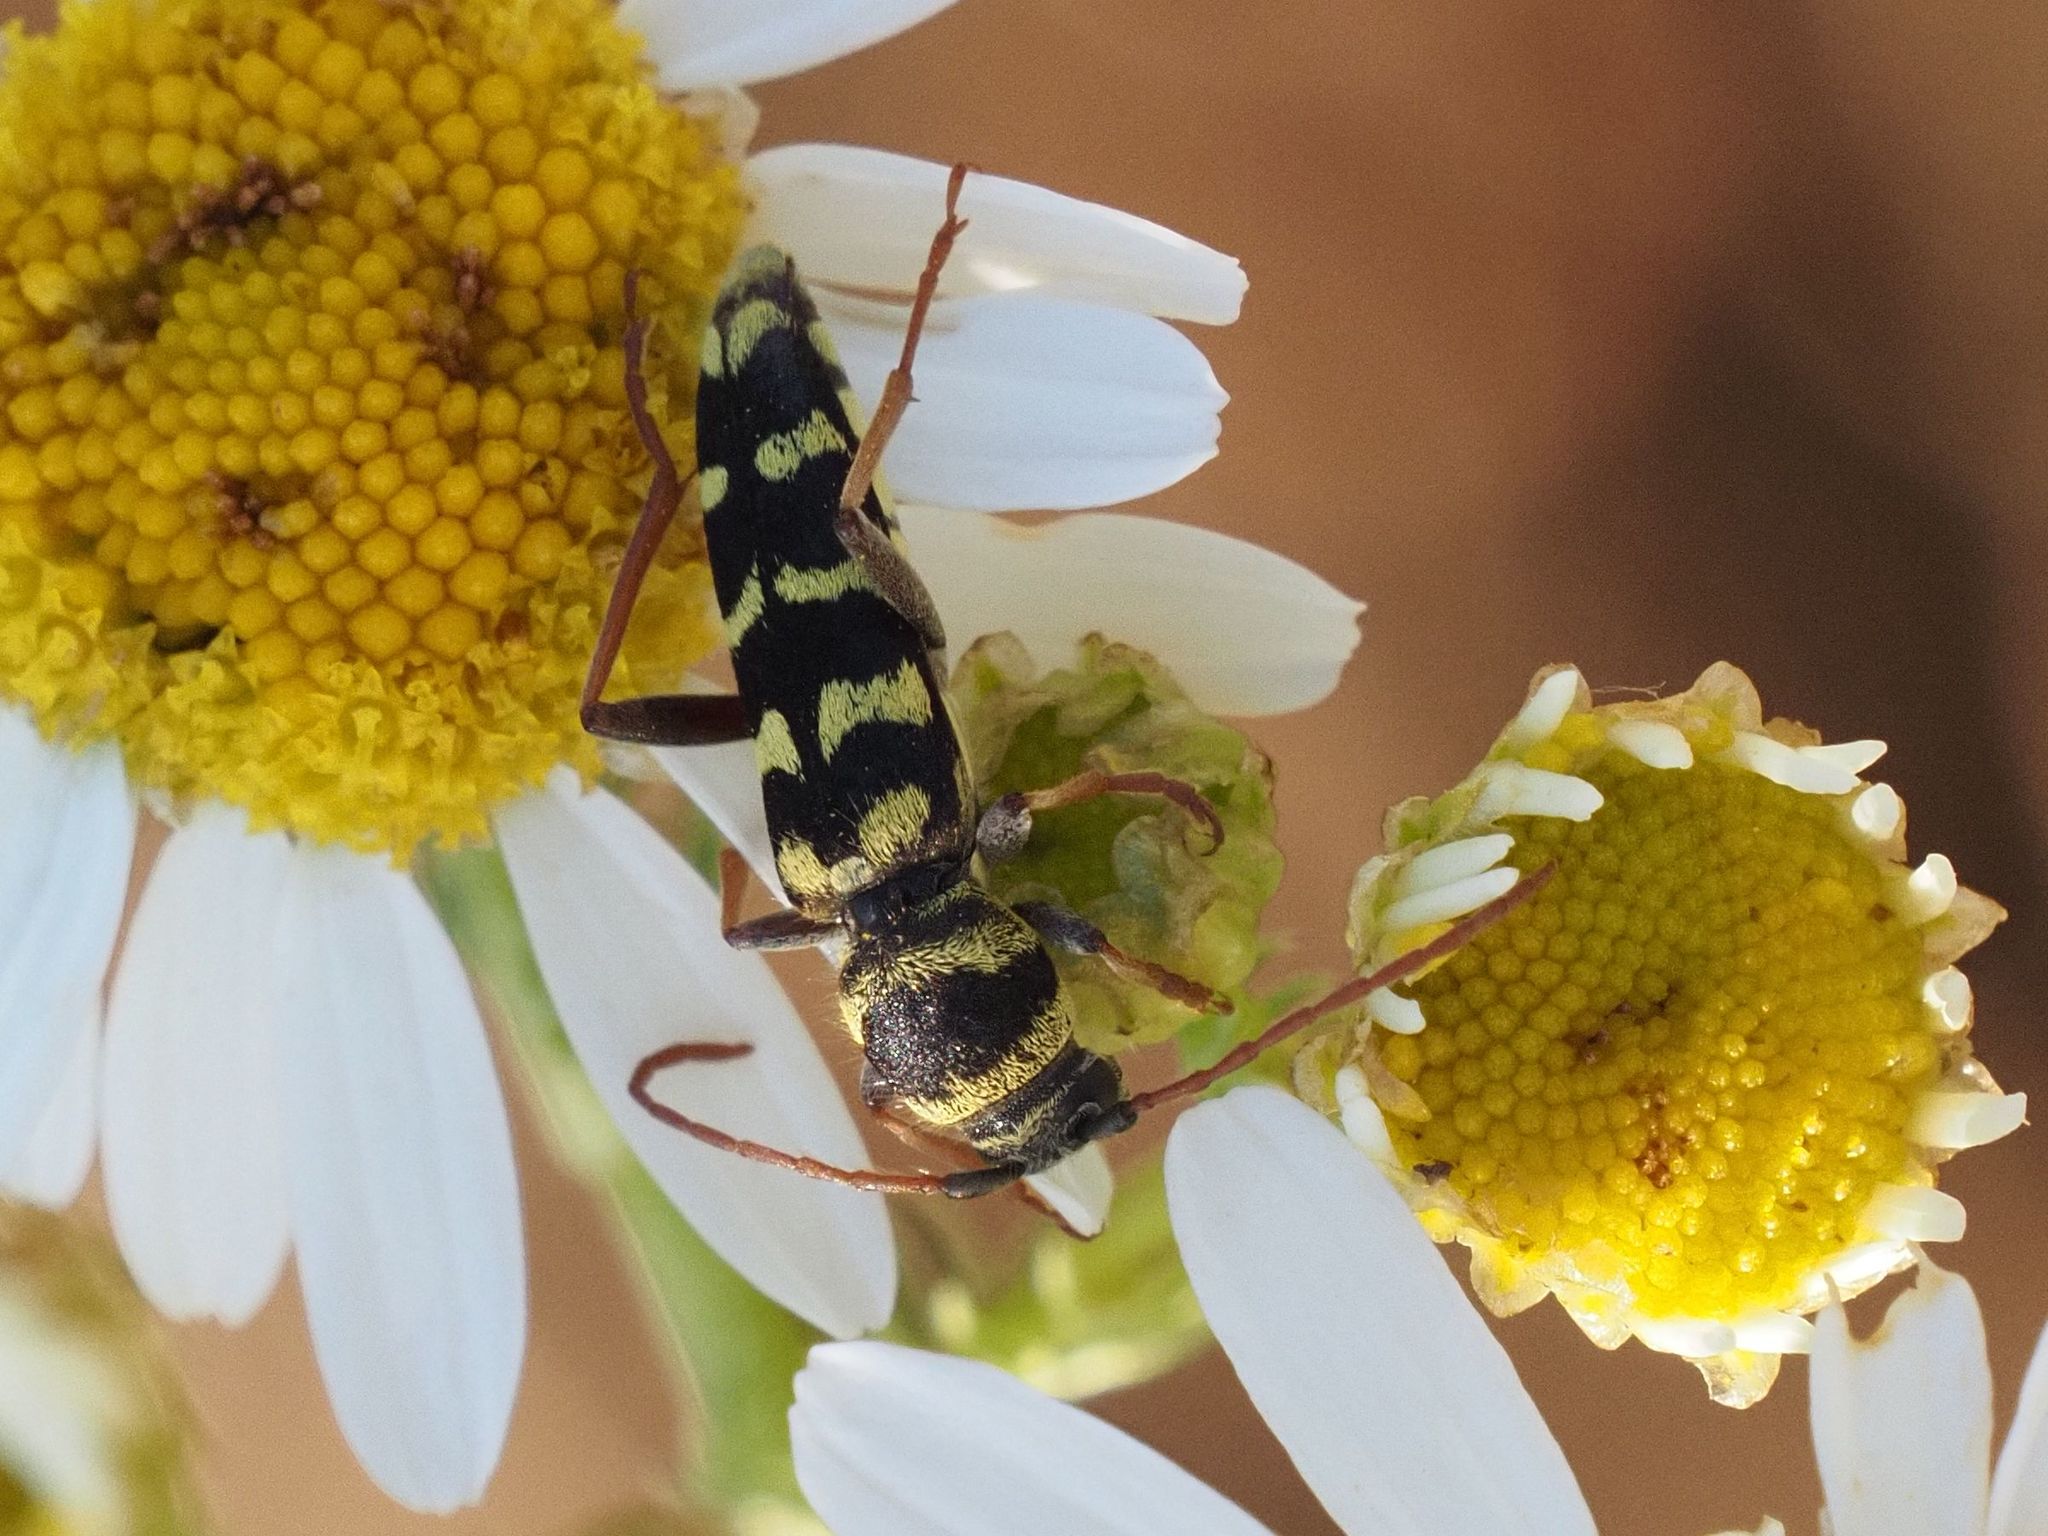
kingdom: Animalia
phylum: Arthropoda
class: Insecta
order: Coleoptera
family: Cerambycidae
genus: Plagionotus
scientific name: Plagionotus floralis
